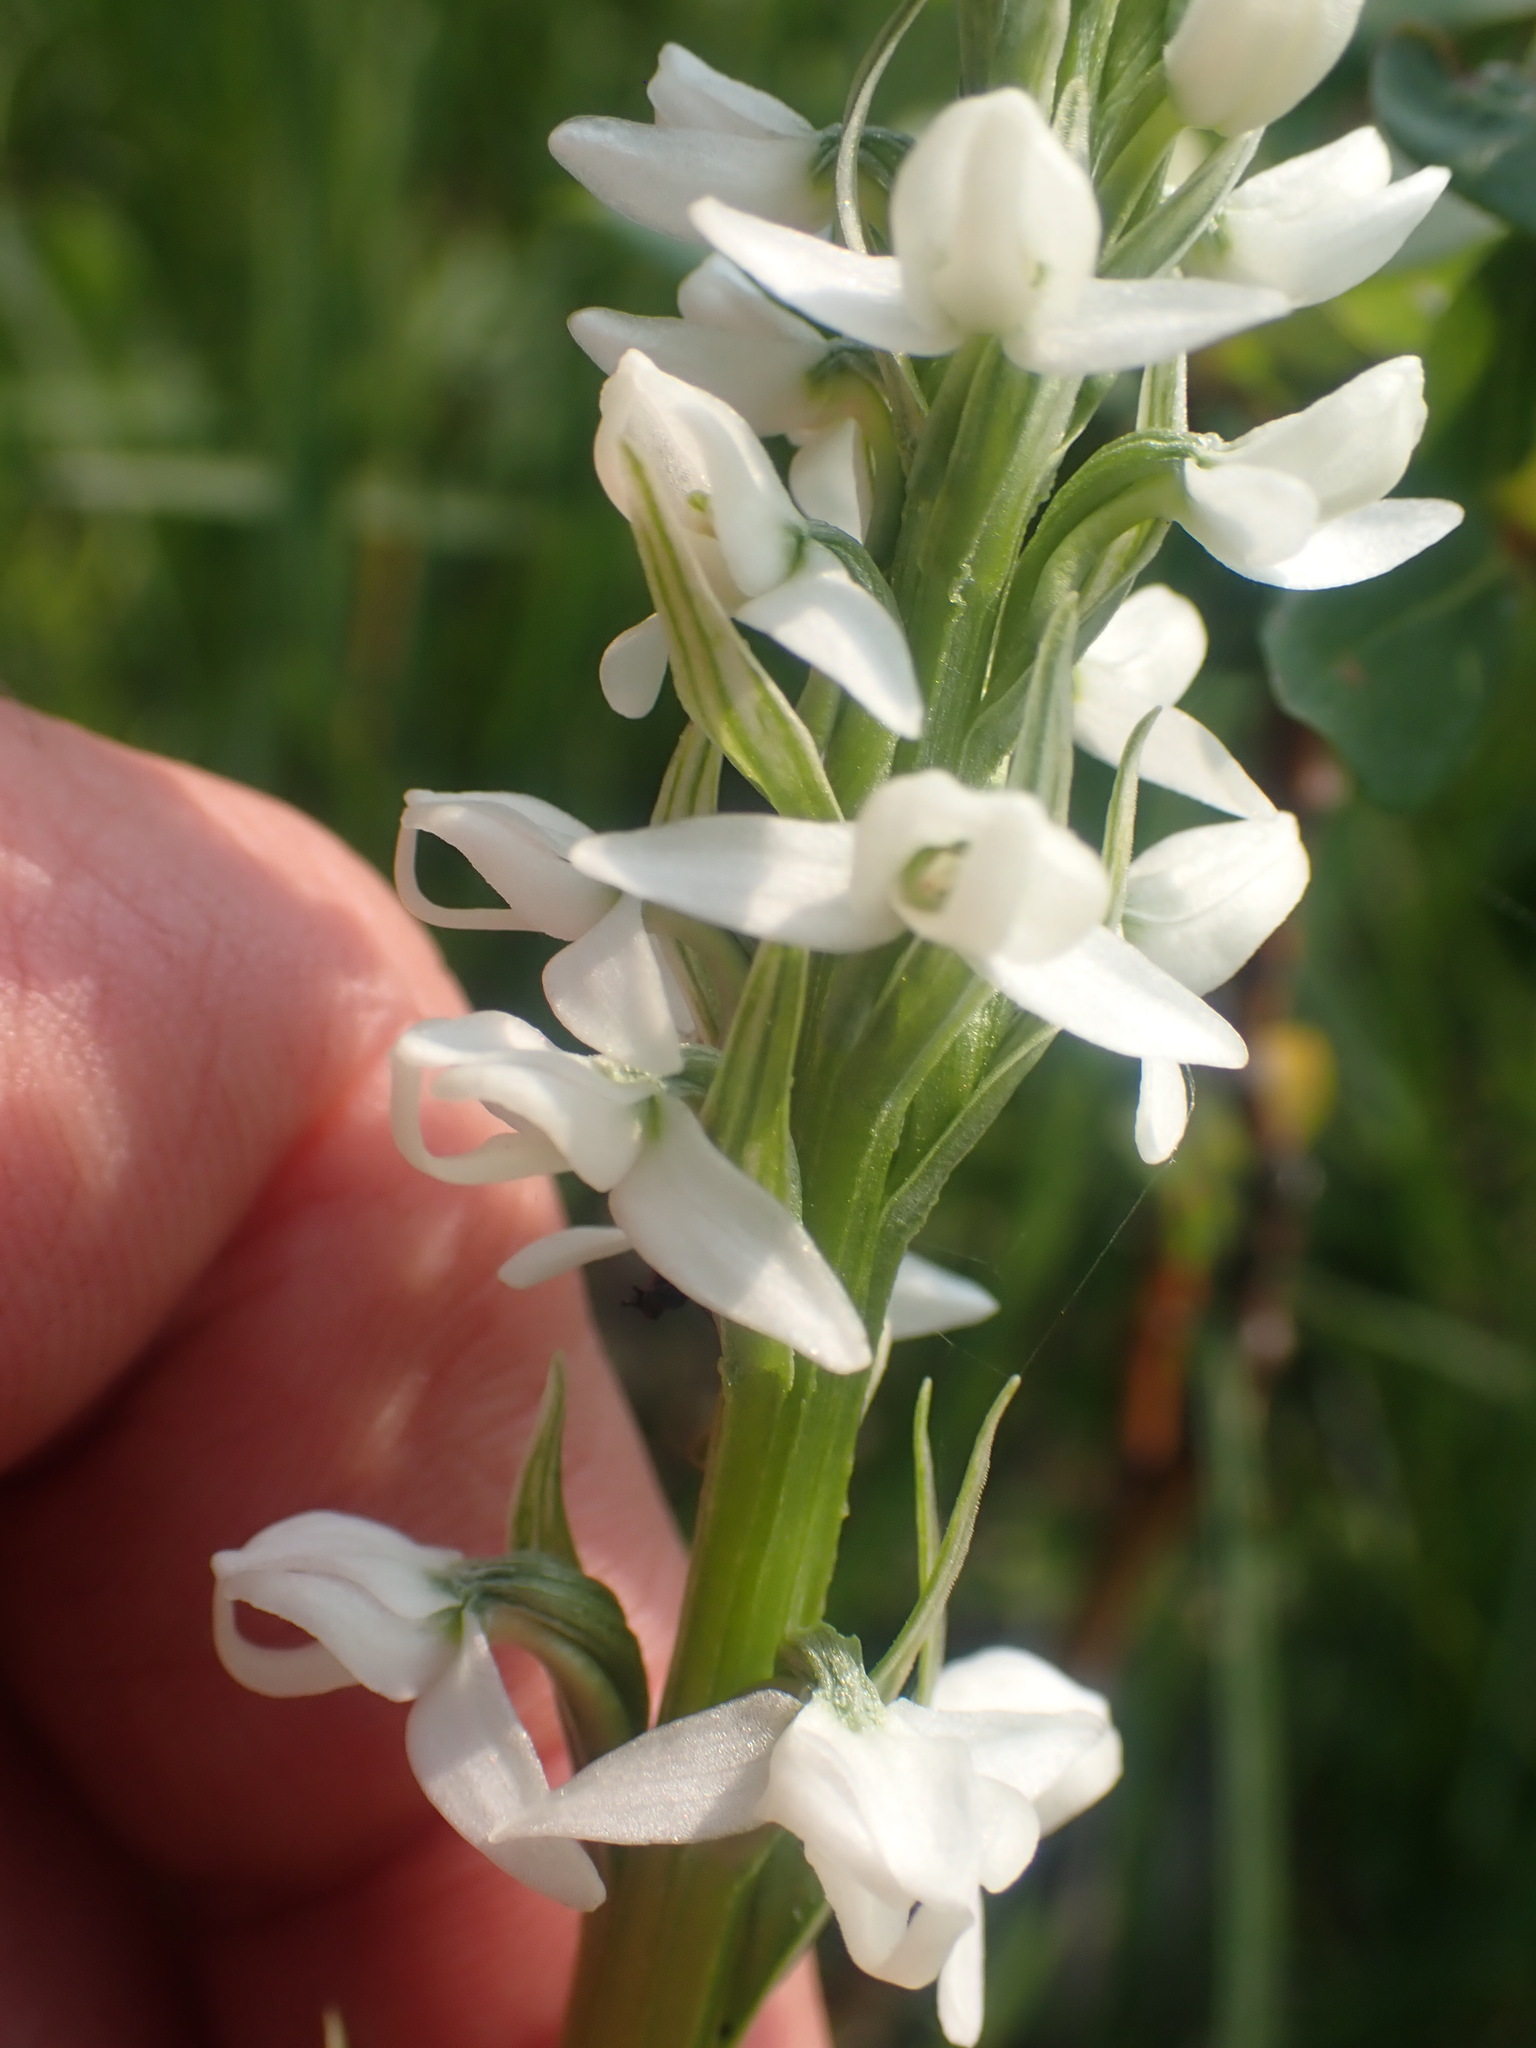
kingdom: Plantae
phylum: Tracheophyta
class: Liliopsida
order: Asparagales
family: Orchidaceae
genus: Platanthera
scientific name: Platanthera dilatata
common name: Bog candles
